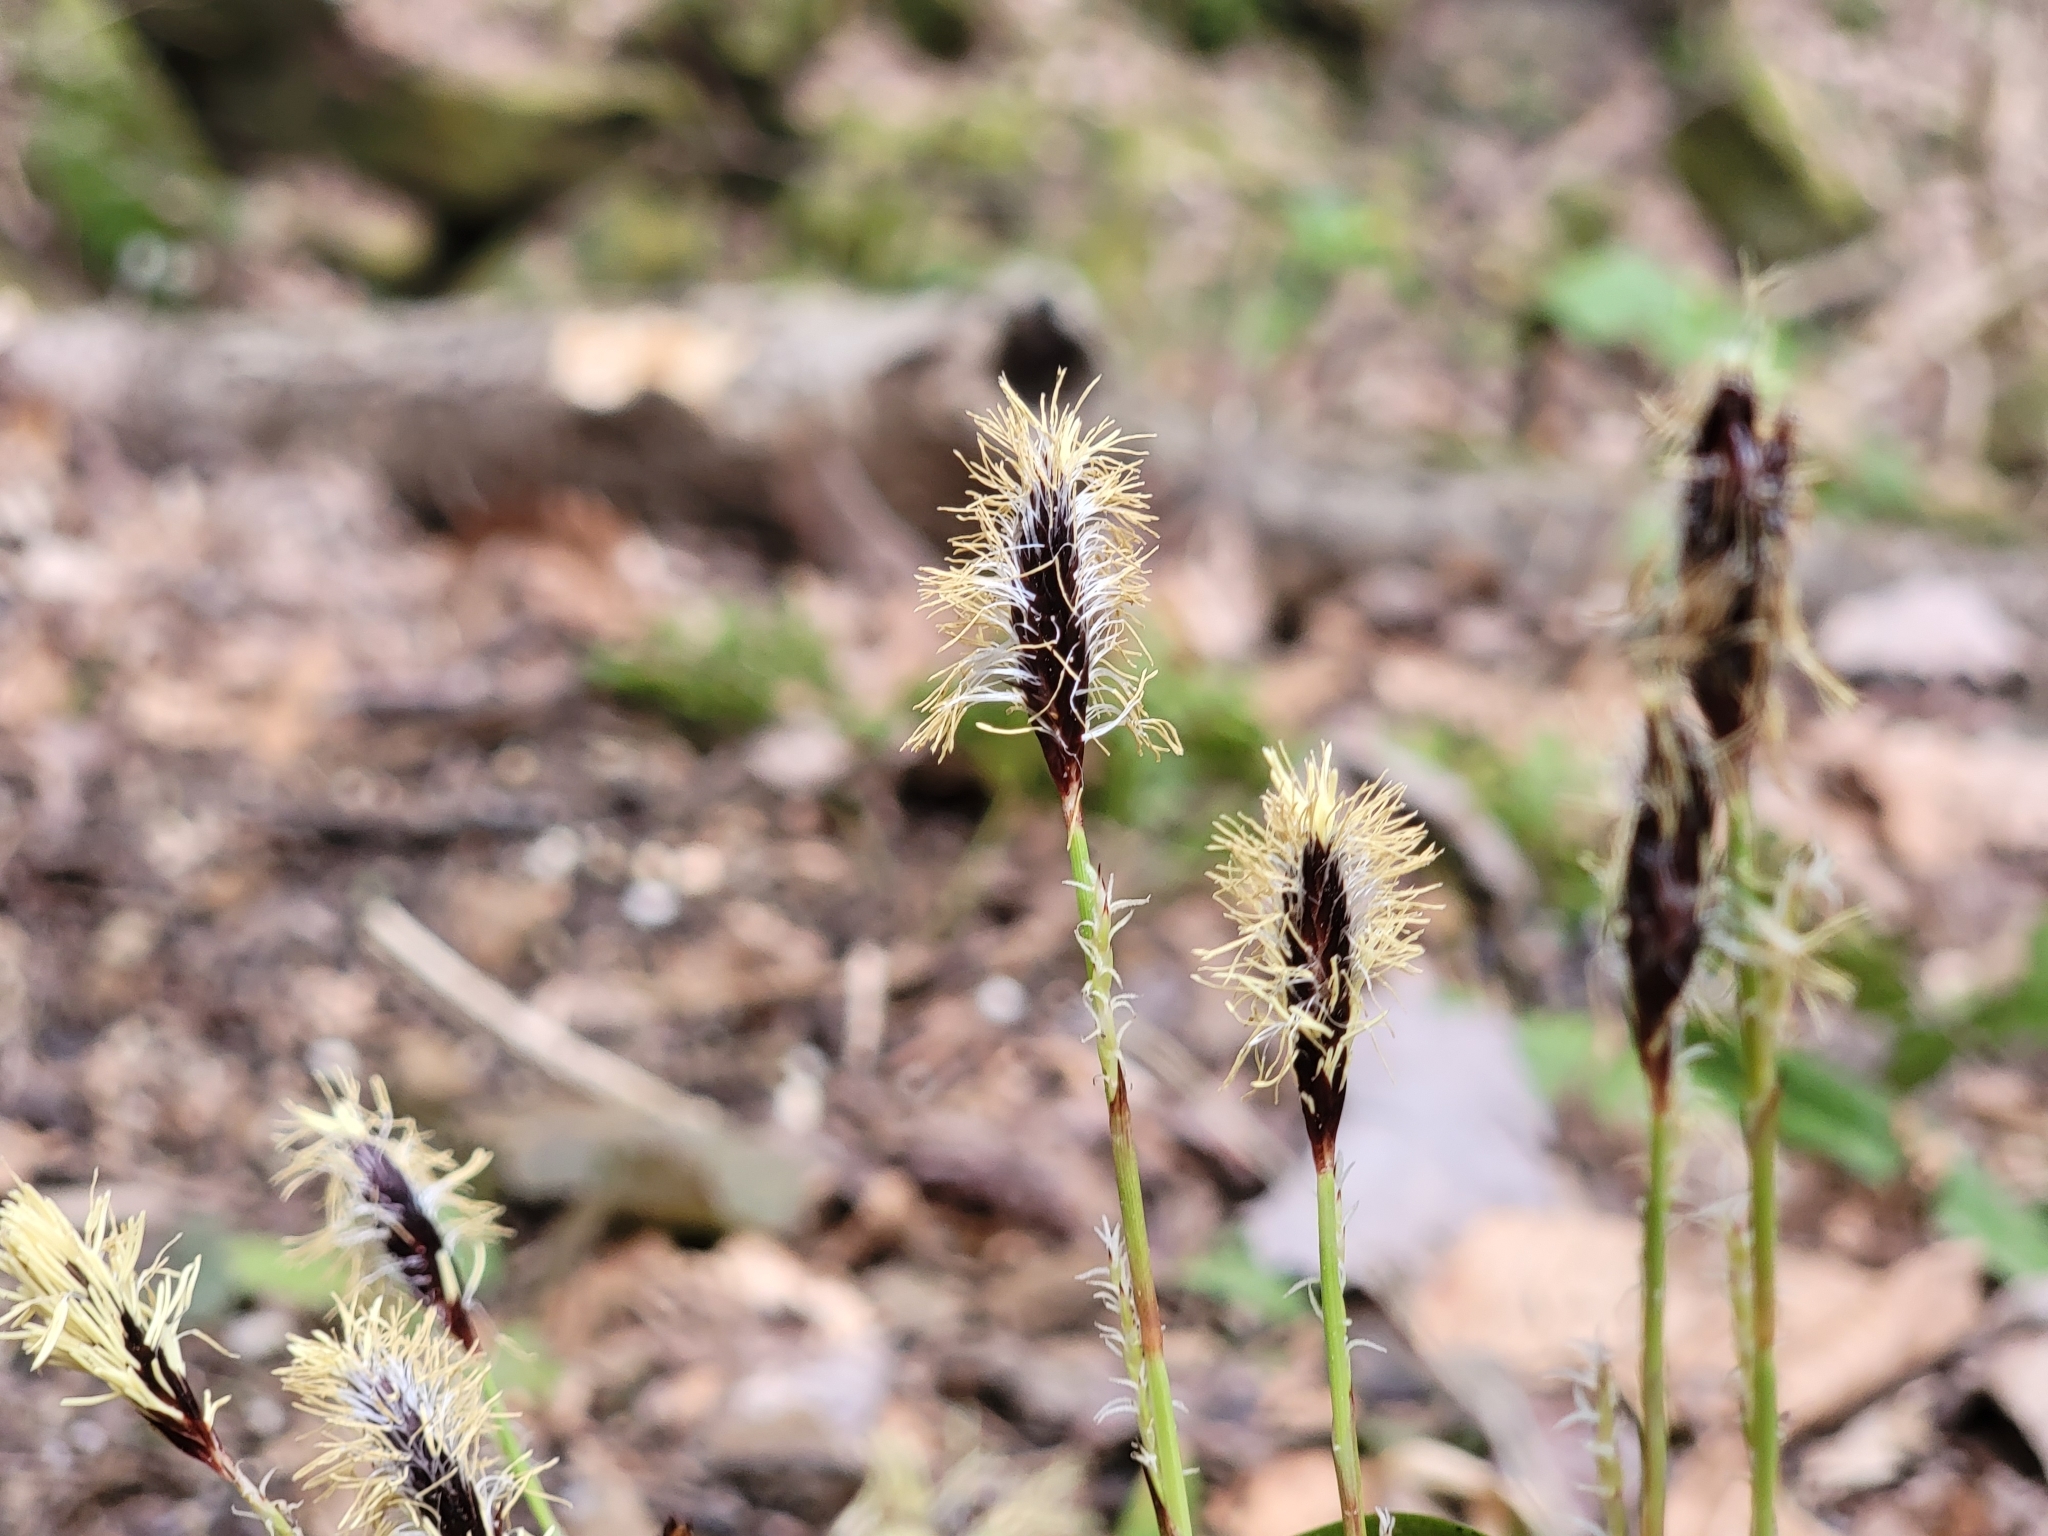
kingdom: Plantae
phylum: Tracheophyta
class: Liliopsida
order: Poales
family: Cyperaceae
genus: Carex
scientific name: Carex plantaginea
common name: Plantain-leaved sedge
